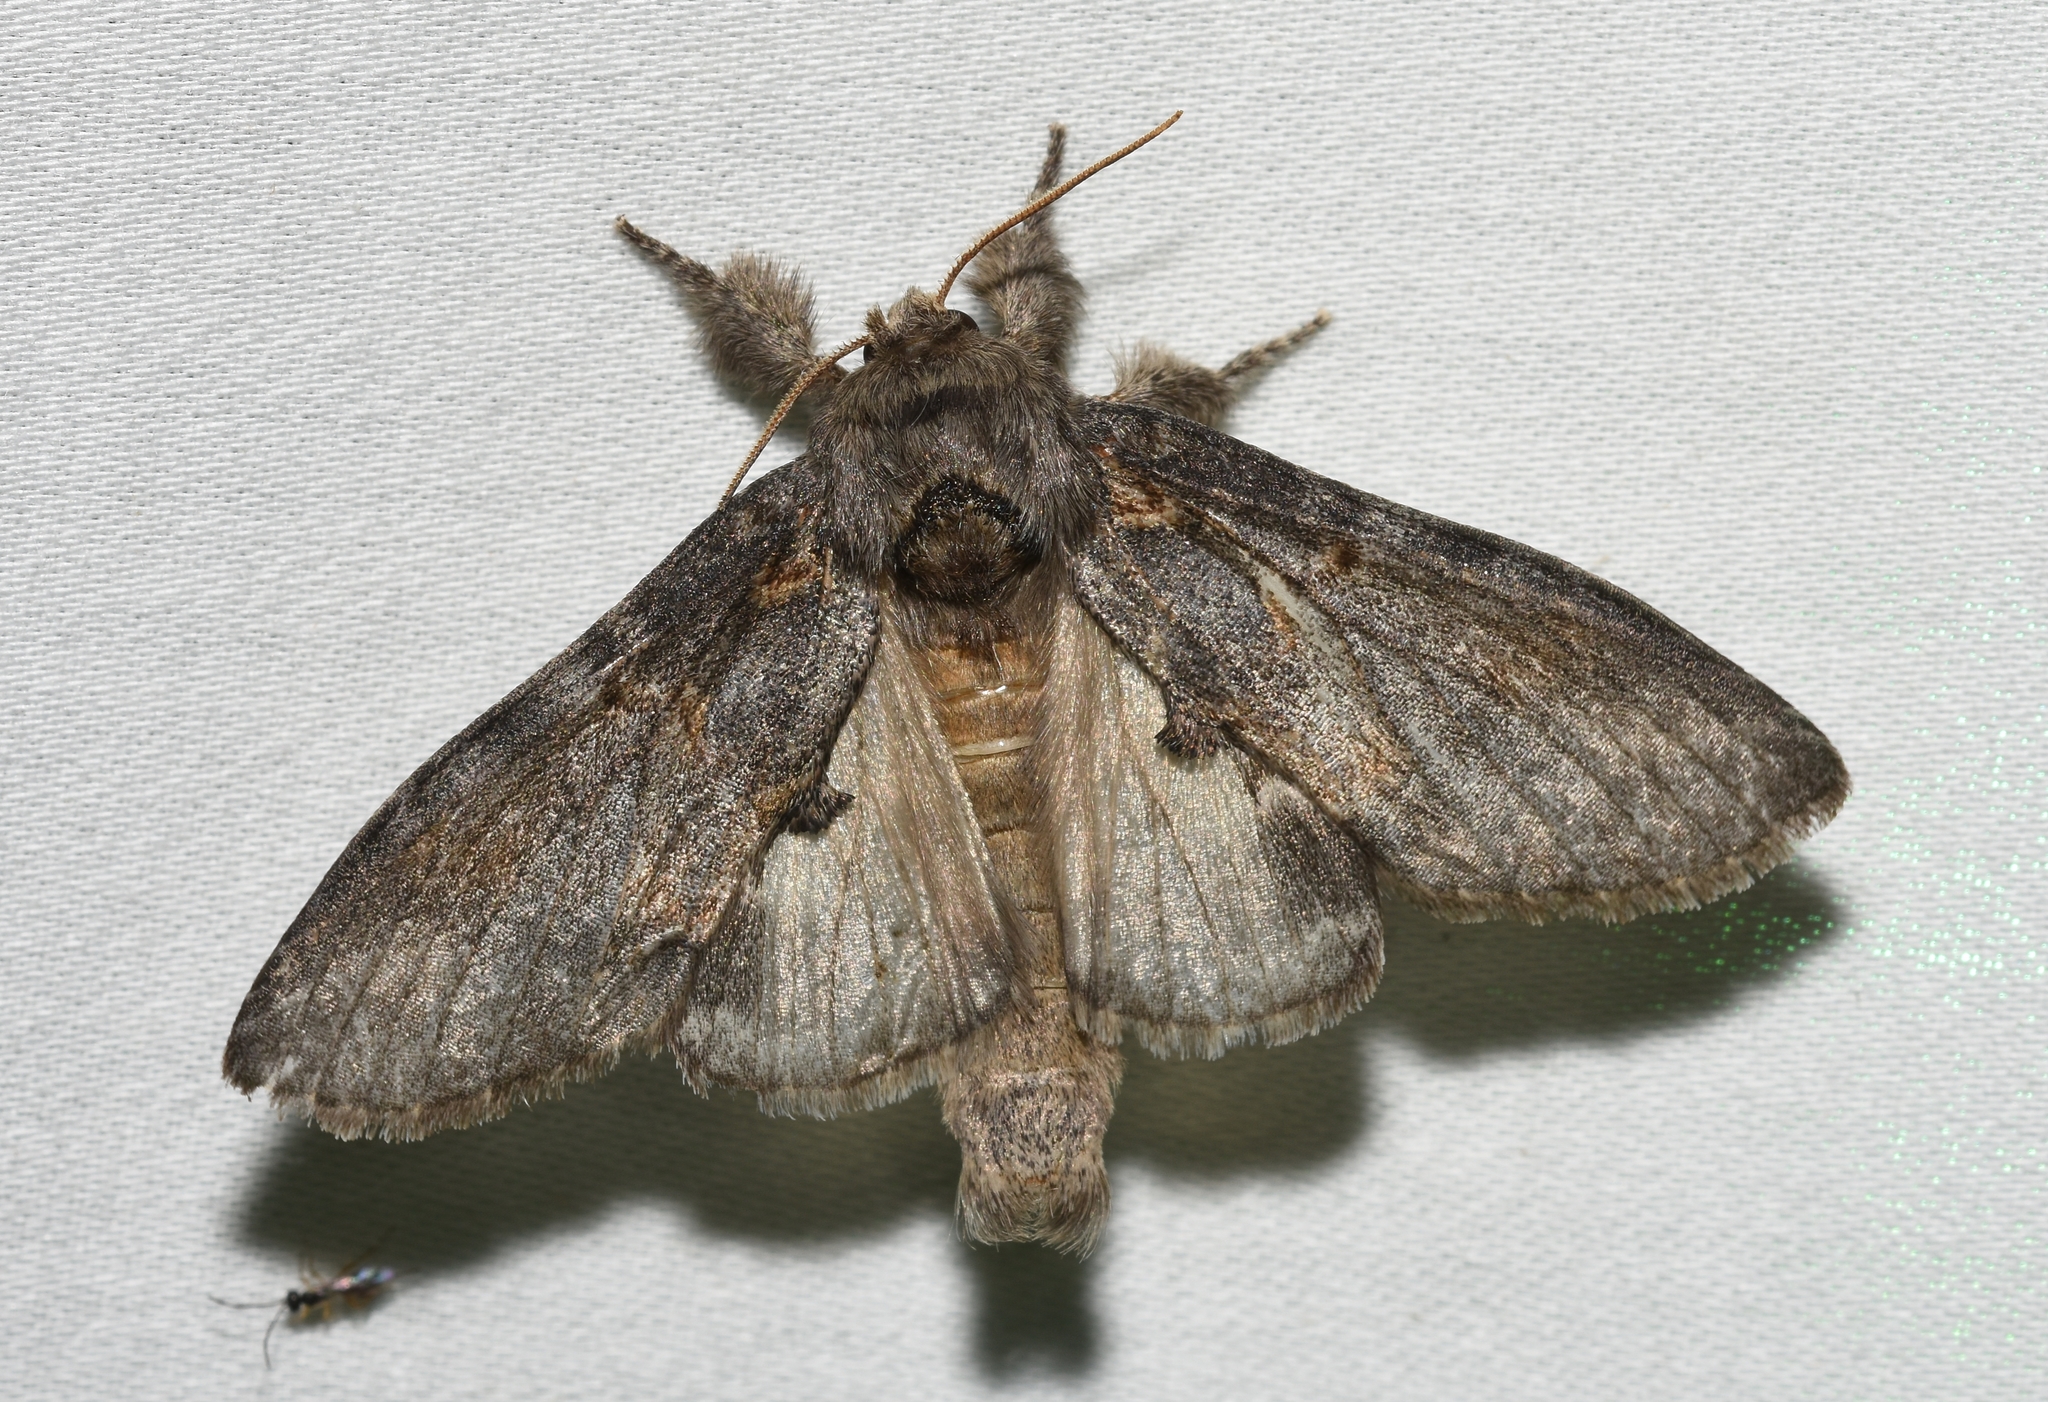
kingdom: Animalia
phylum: Arthropoda
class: Insecta
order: Lepidoptera
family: Notodontidae
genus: Peridea
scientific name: Peridea angulosa
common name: Angulose prominent
